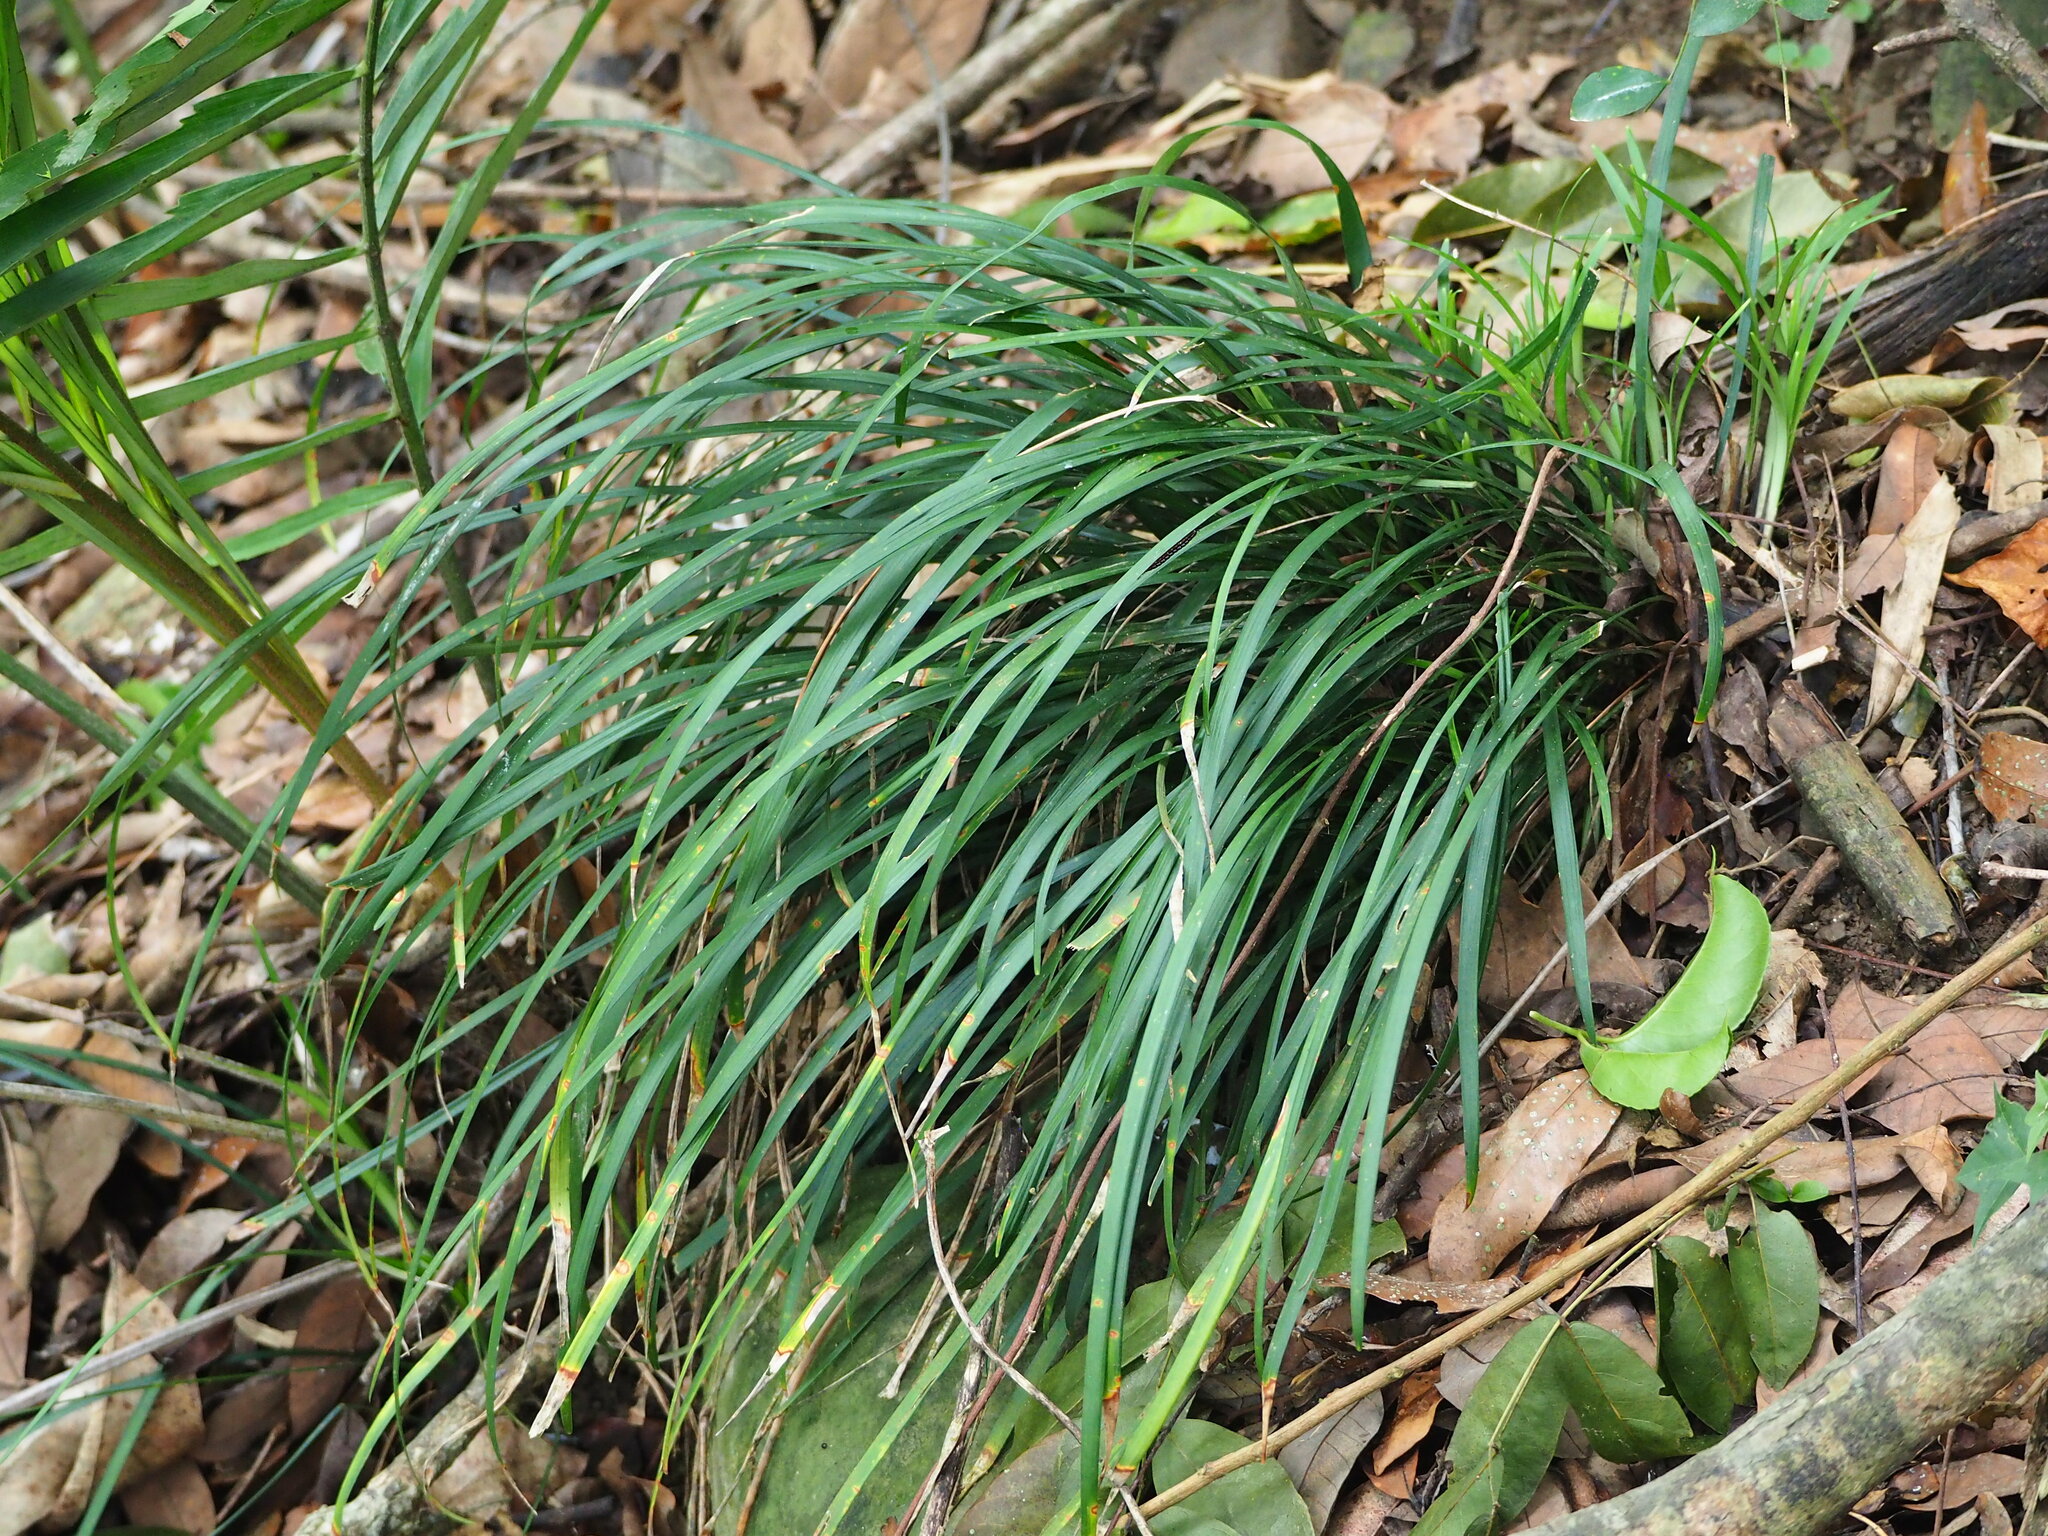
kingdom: Plantae
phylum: Tracheophyta
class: Liliopsida
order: Asparagales
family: Asparagaceae
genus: Ophiopogon
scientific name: Ophiopogon reversus
